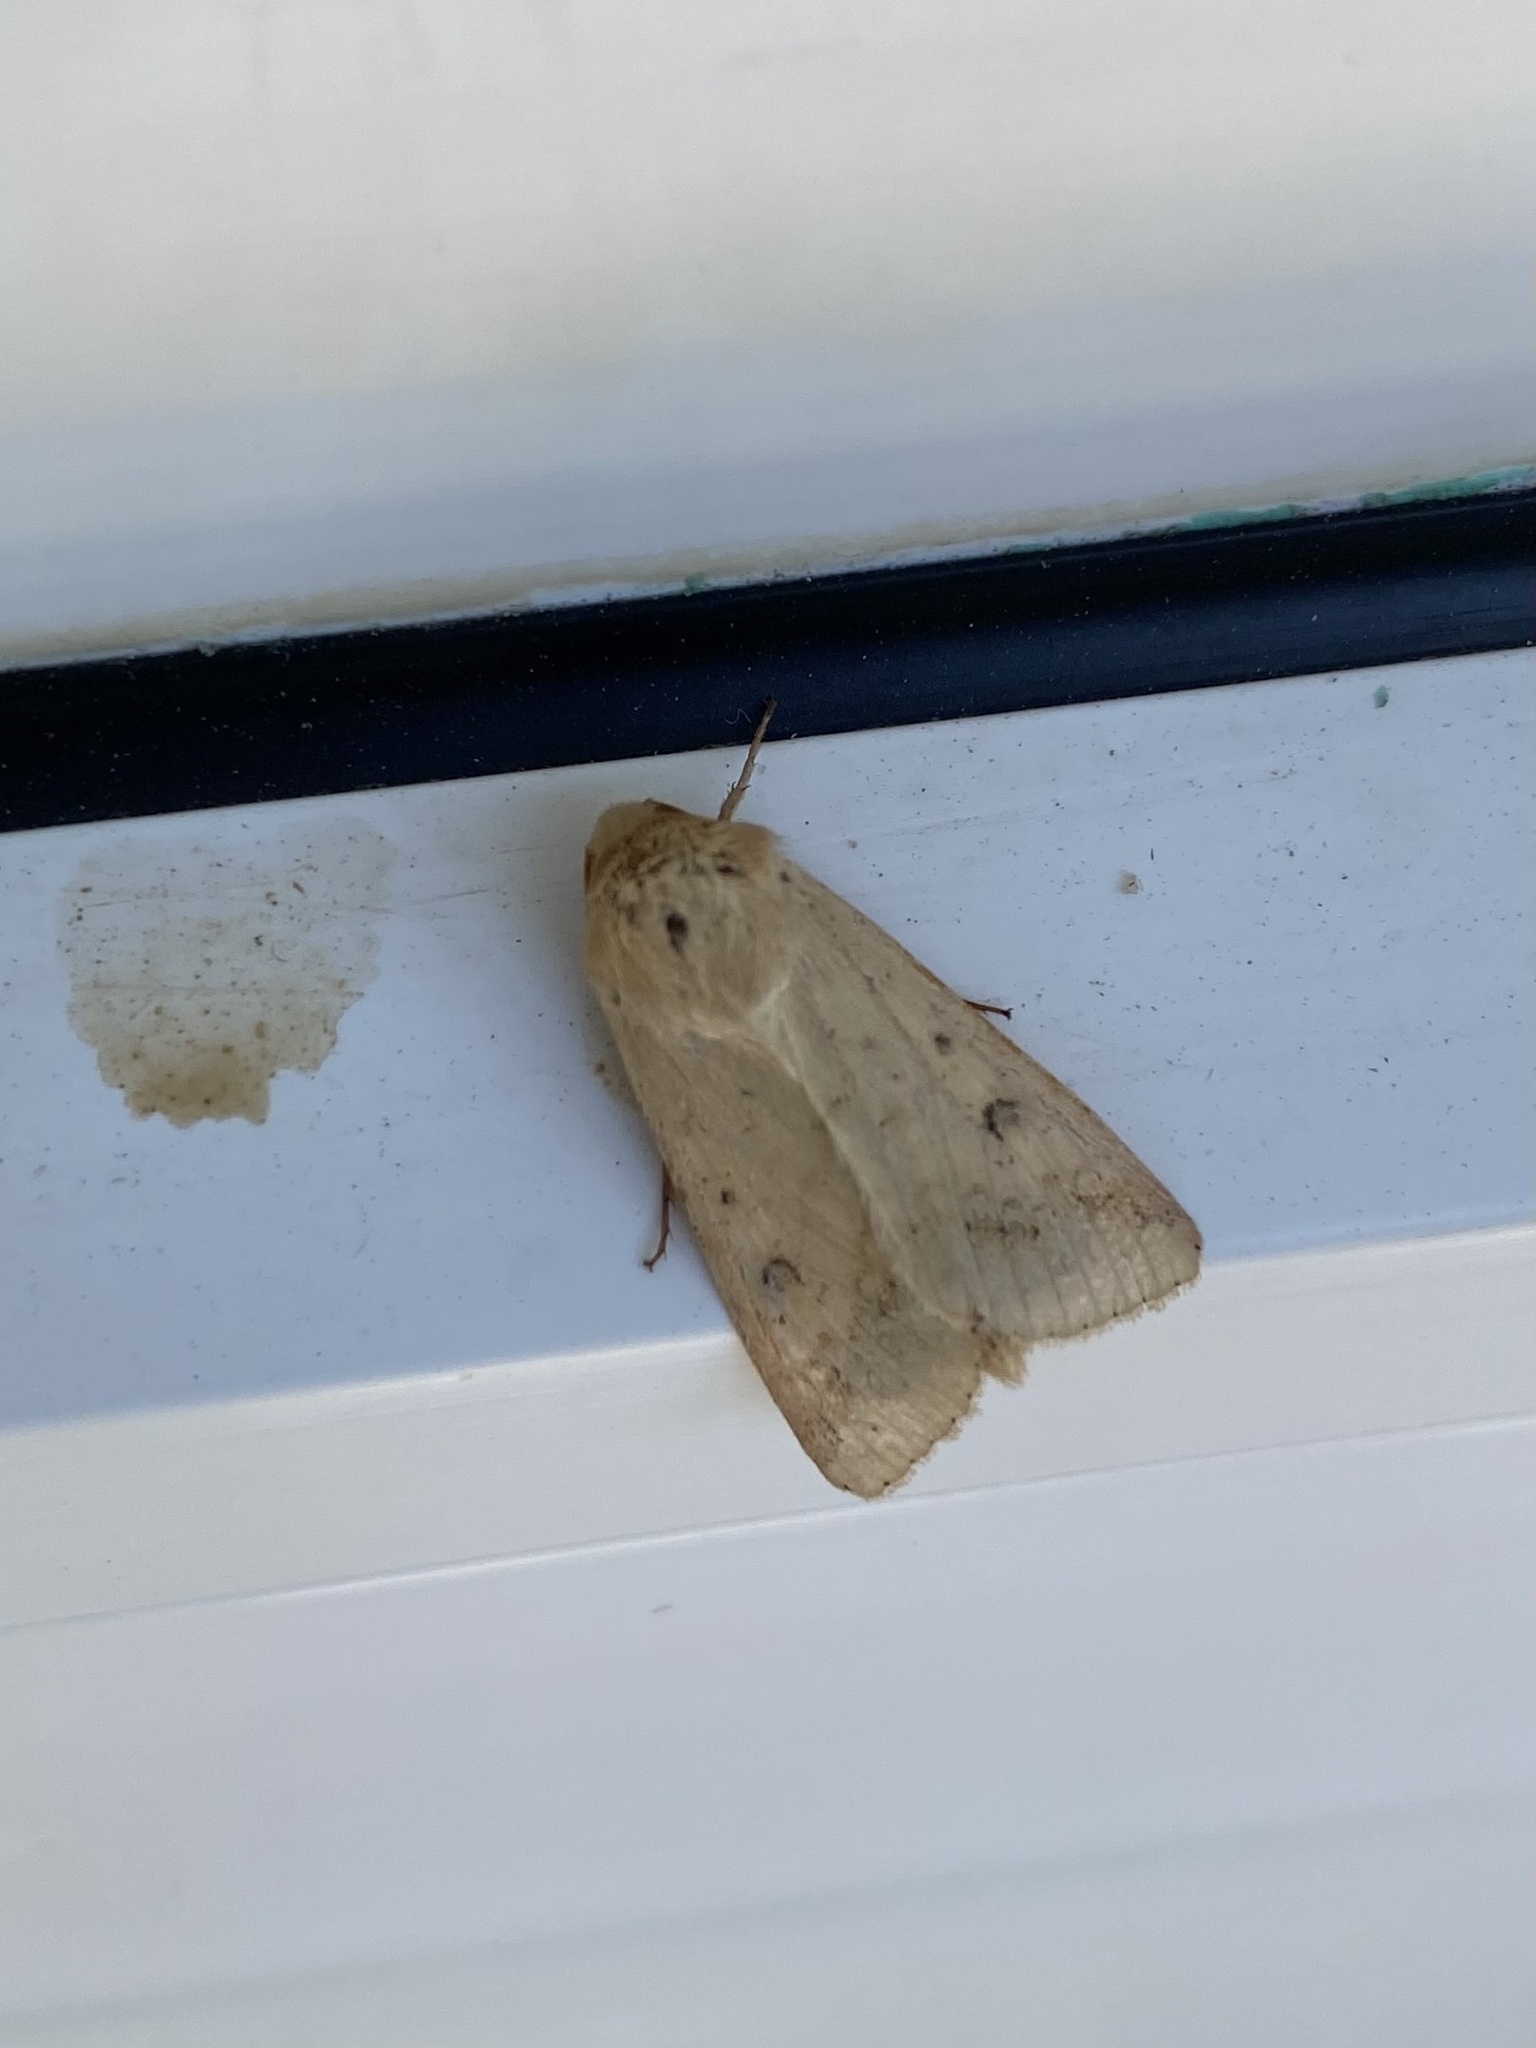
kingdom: Animalia
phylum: Arthropoda
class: Insecta
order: Lepidoptera
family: Noctuidae
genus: Helicoverpa
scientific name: Helicoverpa armigera
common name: Cotton bollworm
